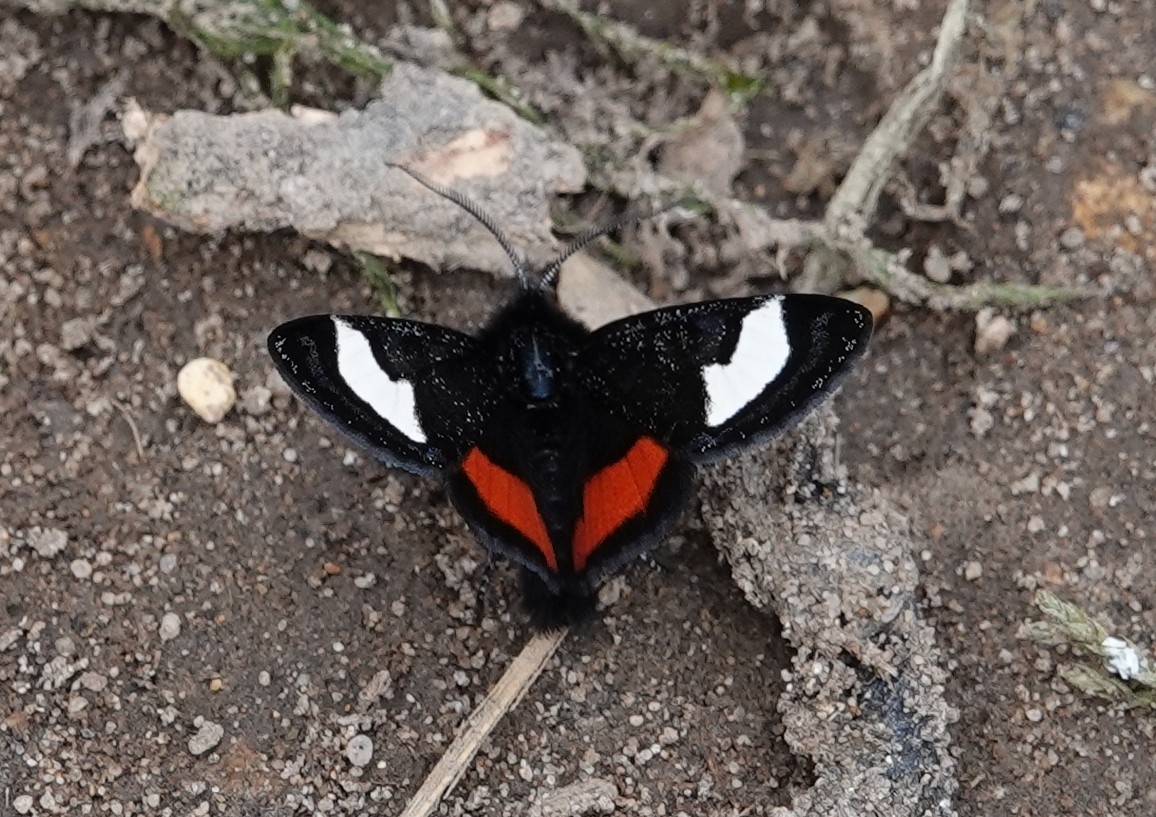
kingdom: Animalia
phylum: Arthropoda
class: Insecta
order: Lepidoptera
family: Noctuidae
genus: Psychomorpha
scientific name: Psychomorpha epimenis
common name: Grapevine epimenis moth
